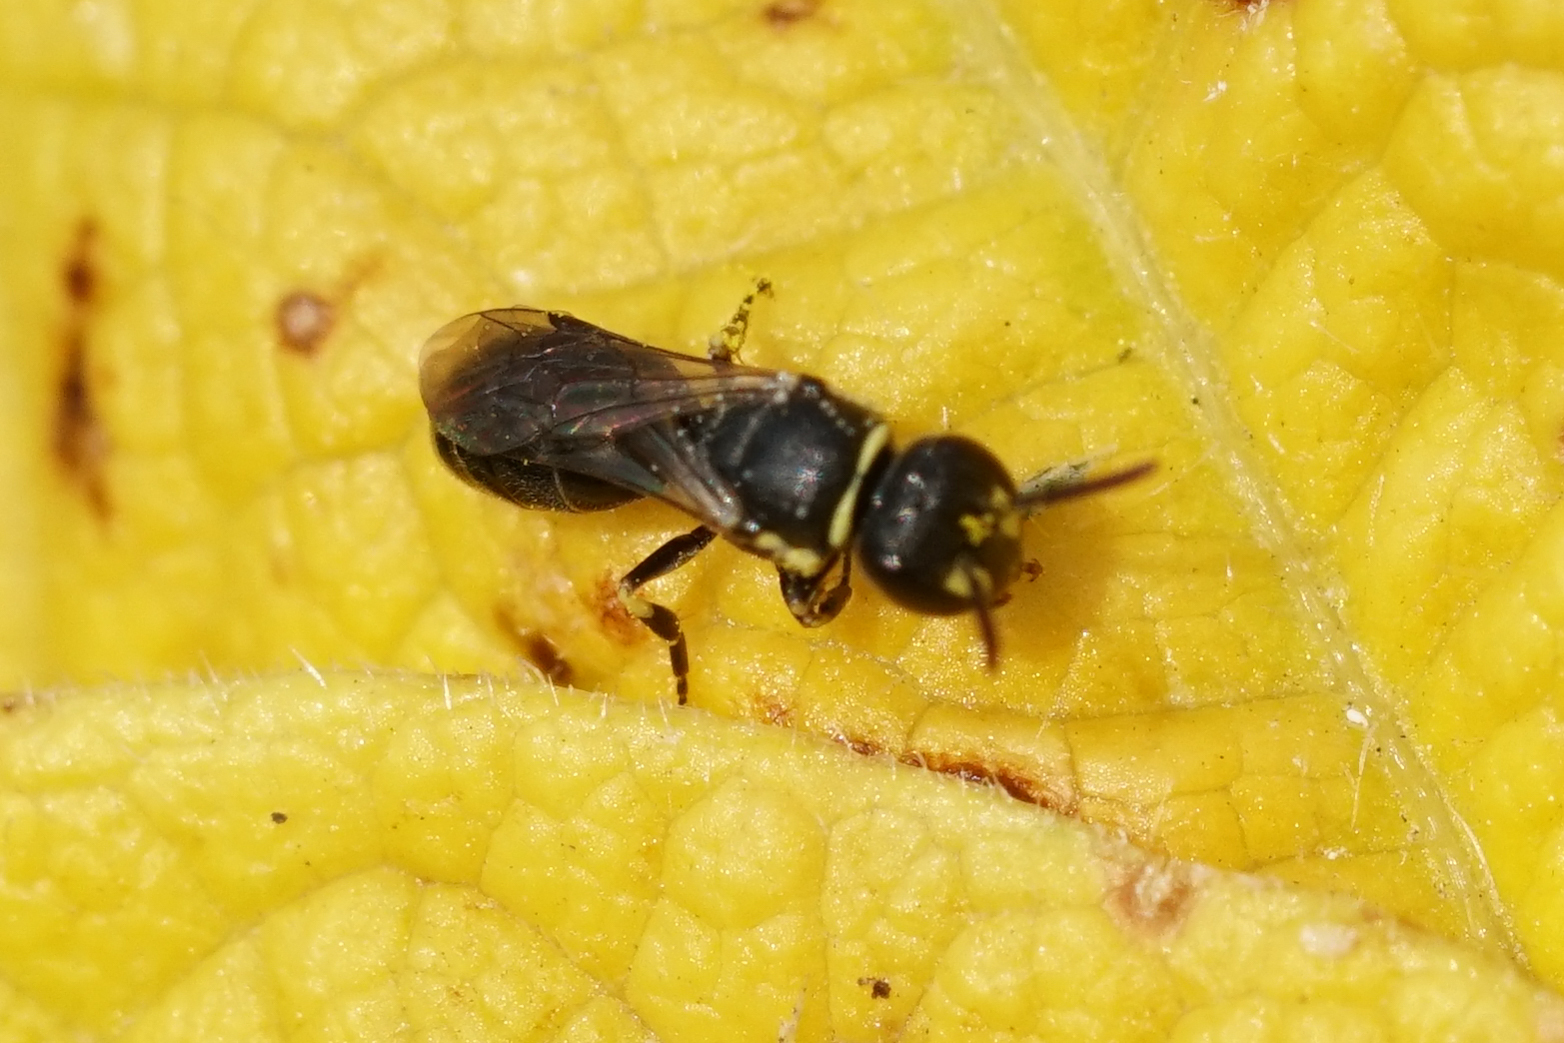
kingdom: Animalia
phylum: Arthropoda
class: Insecta
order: Hymenoptera
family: Colletidae
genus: Hylaeus
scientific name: Hylaeus
